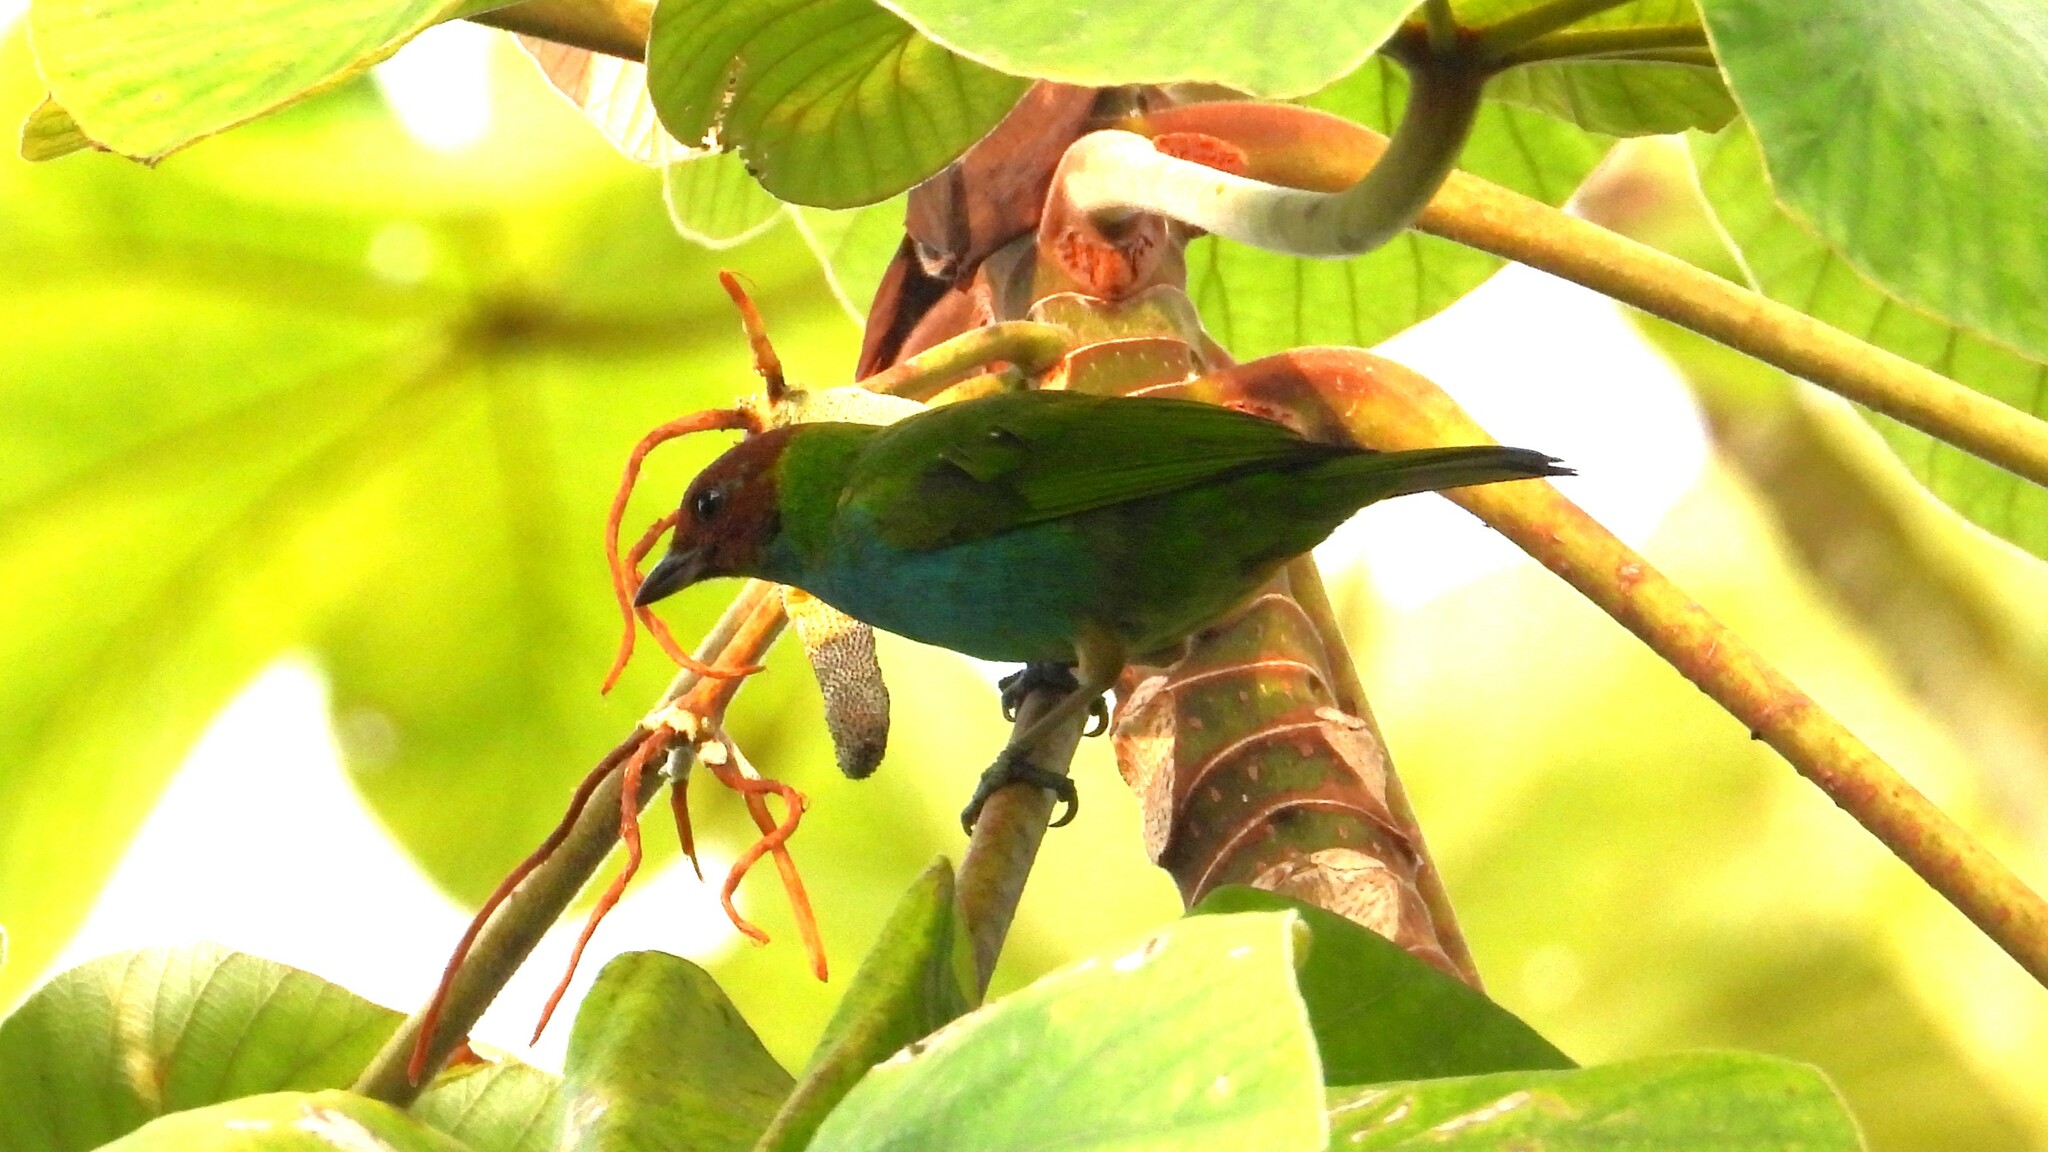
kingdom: Animalia
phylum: Chordata
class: Aves
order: Passeriformes
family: Thraupidae
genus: Tangara
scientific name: Tangara gyrola
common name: Bay-headed tanager
